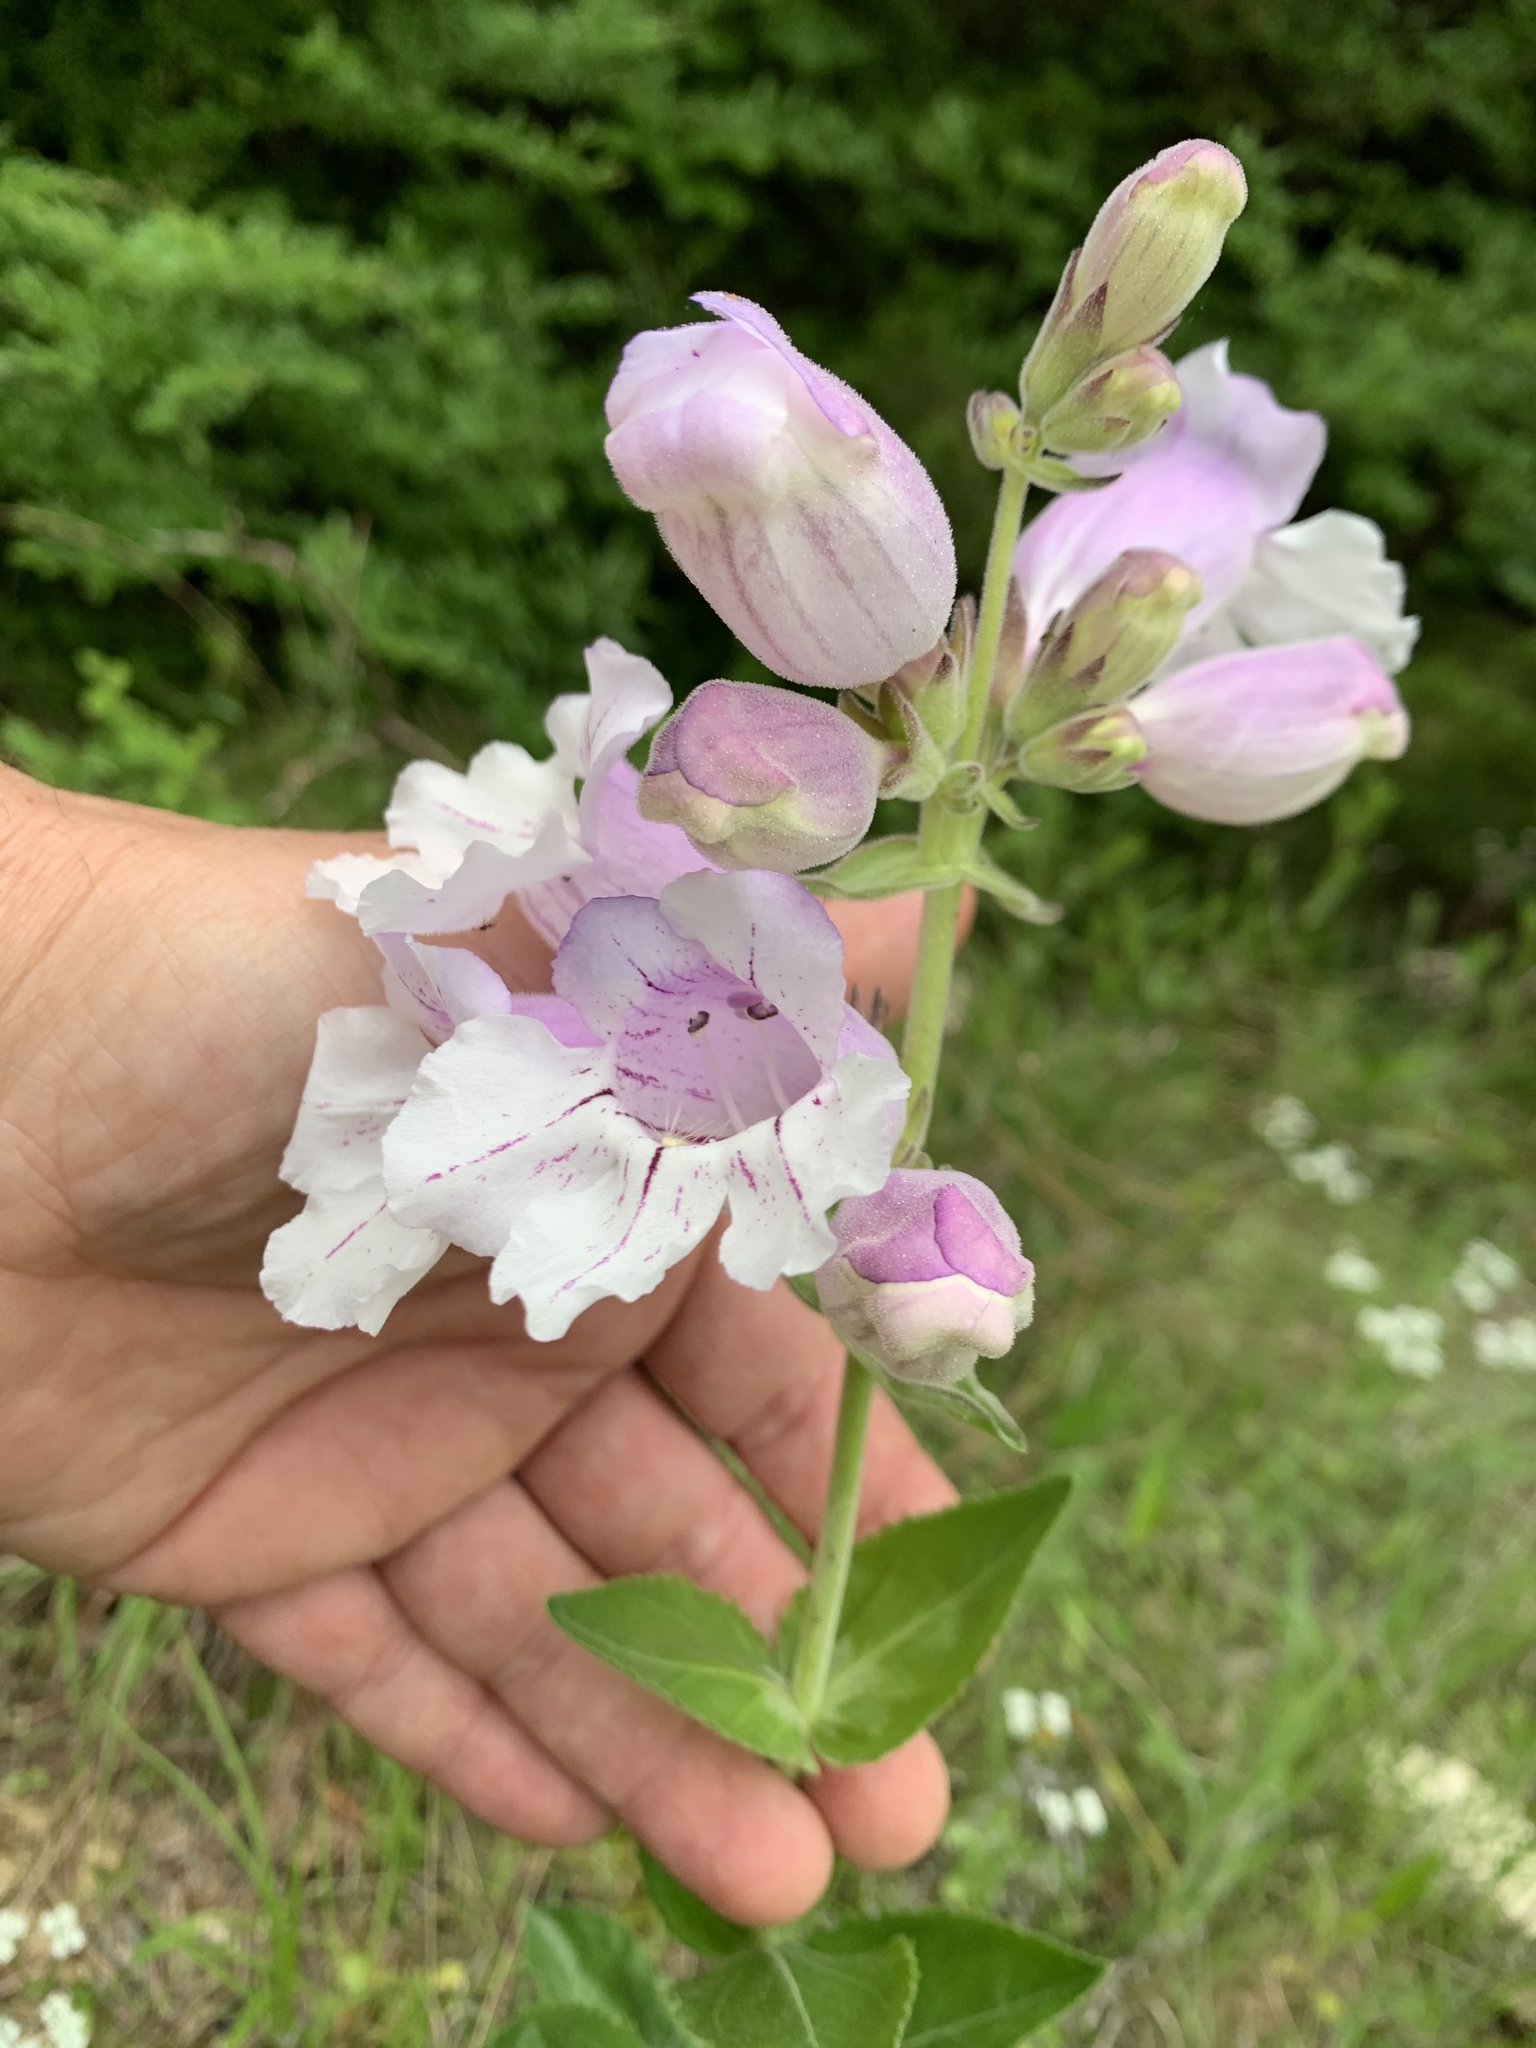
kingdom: Plantae
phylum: Tracheophyta
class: Magnoliopsida
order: Lamiales
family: Plantaginaceae
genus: Penstemon
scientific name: Penstemon cobaea
